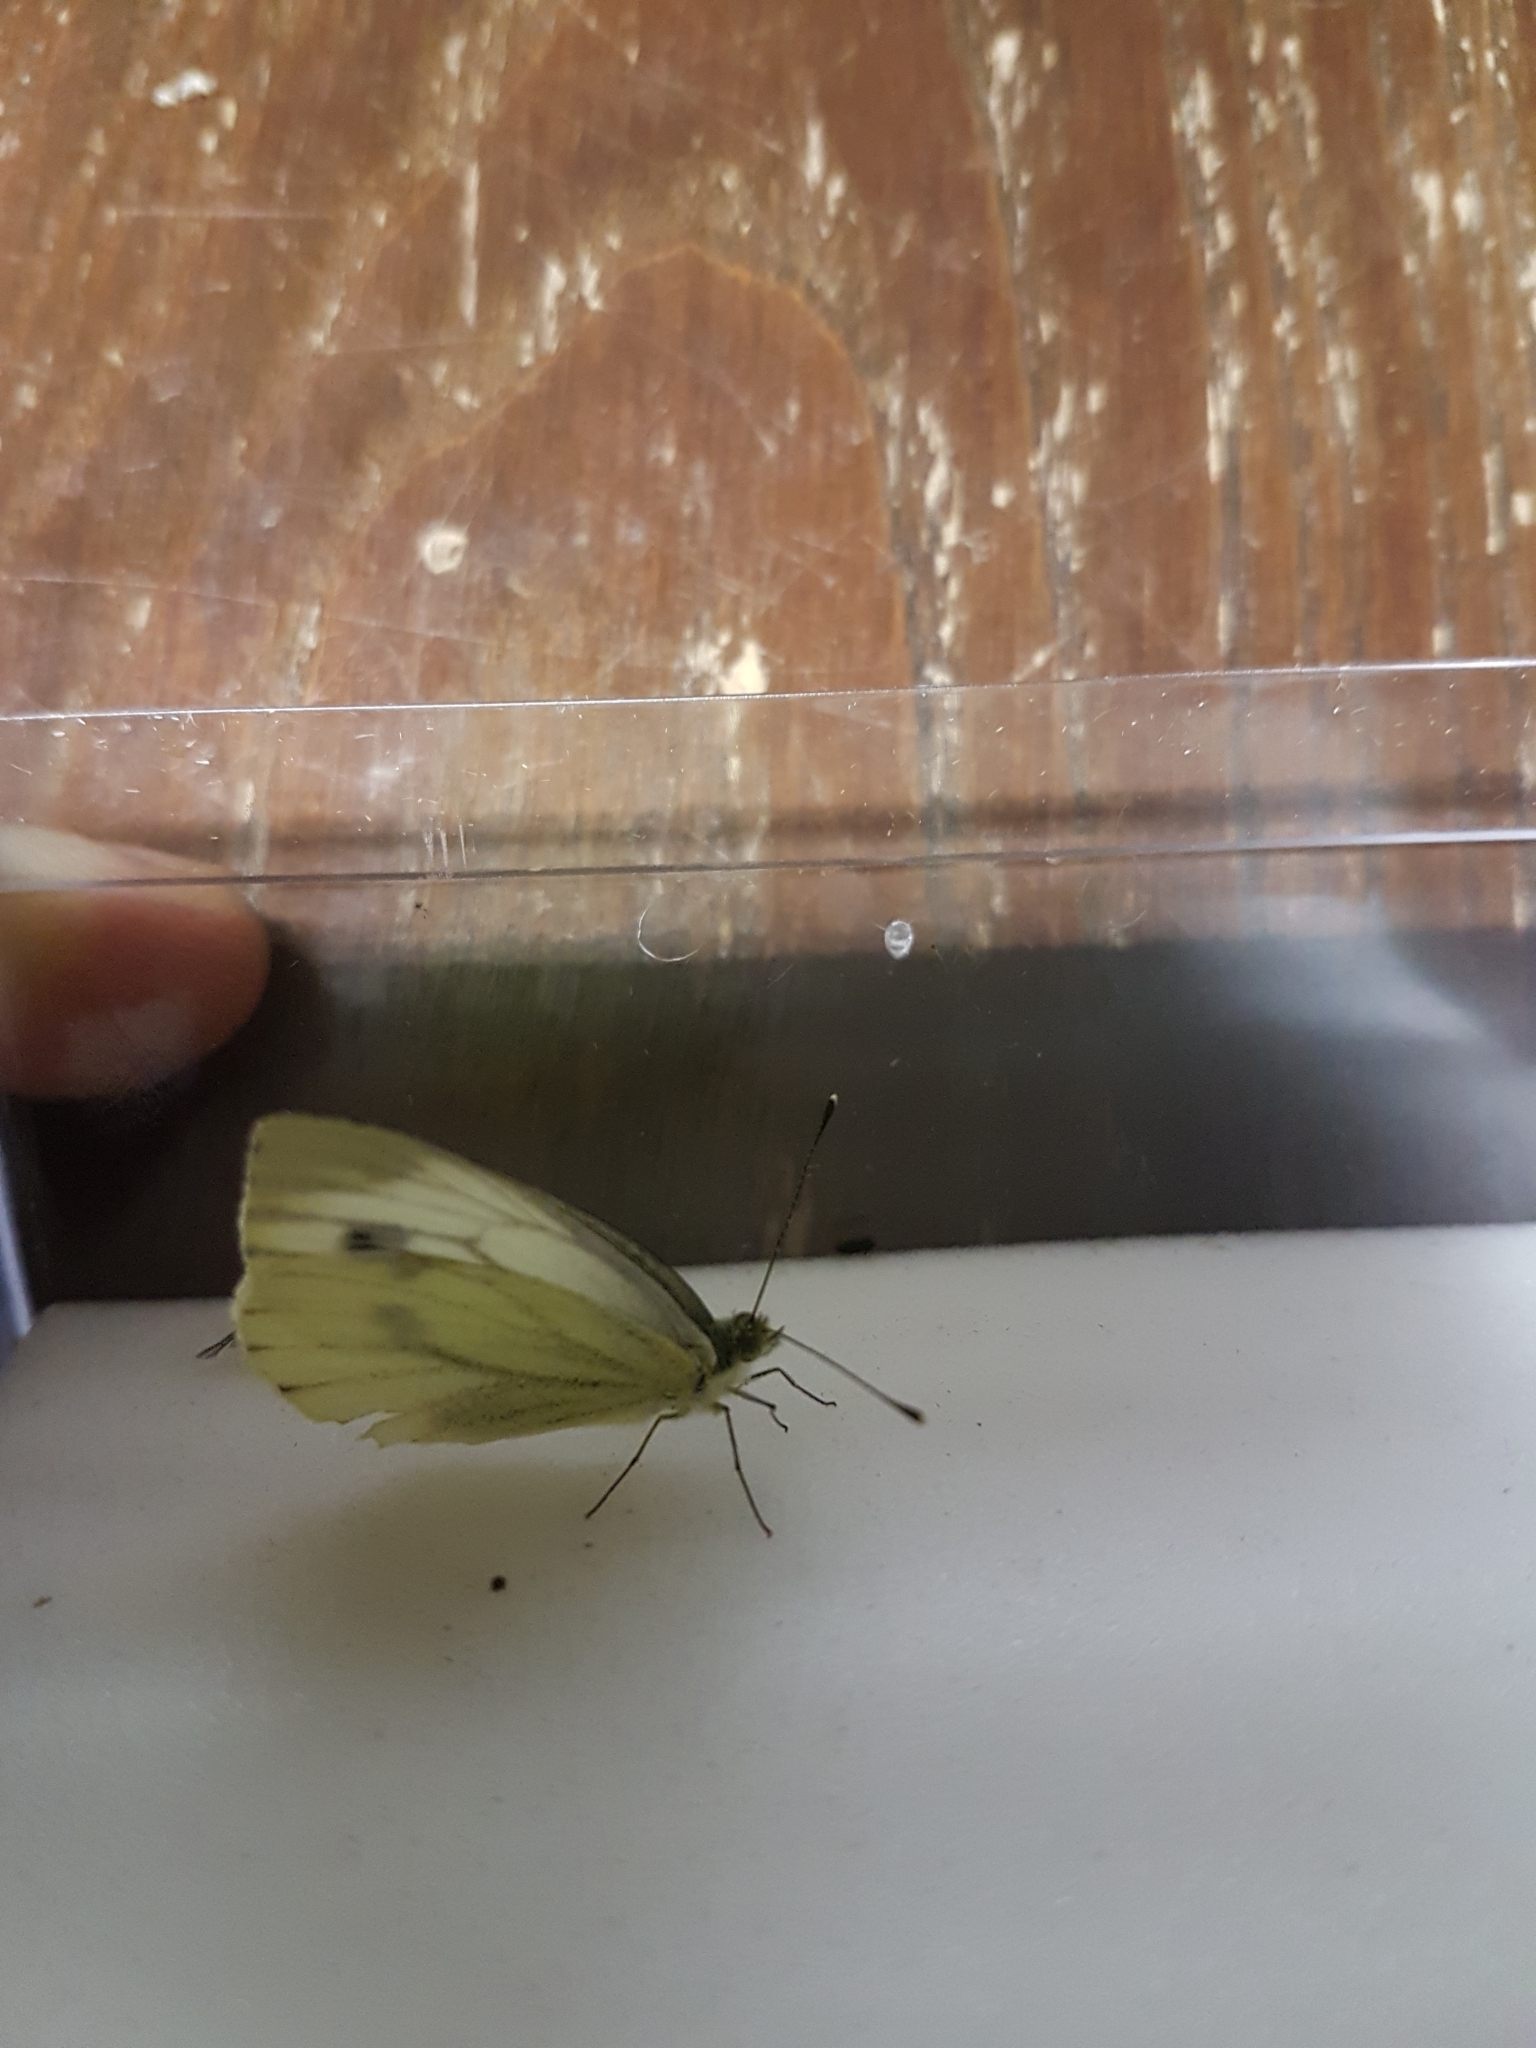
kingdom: Animalia
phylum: Arthropoda
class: Insecta
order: Lepidoptera
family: Pieridae
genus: Pieris
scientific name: Pieris napi
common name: Green-veined white
